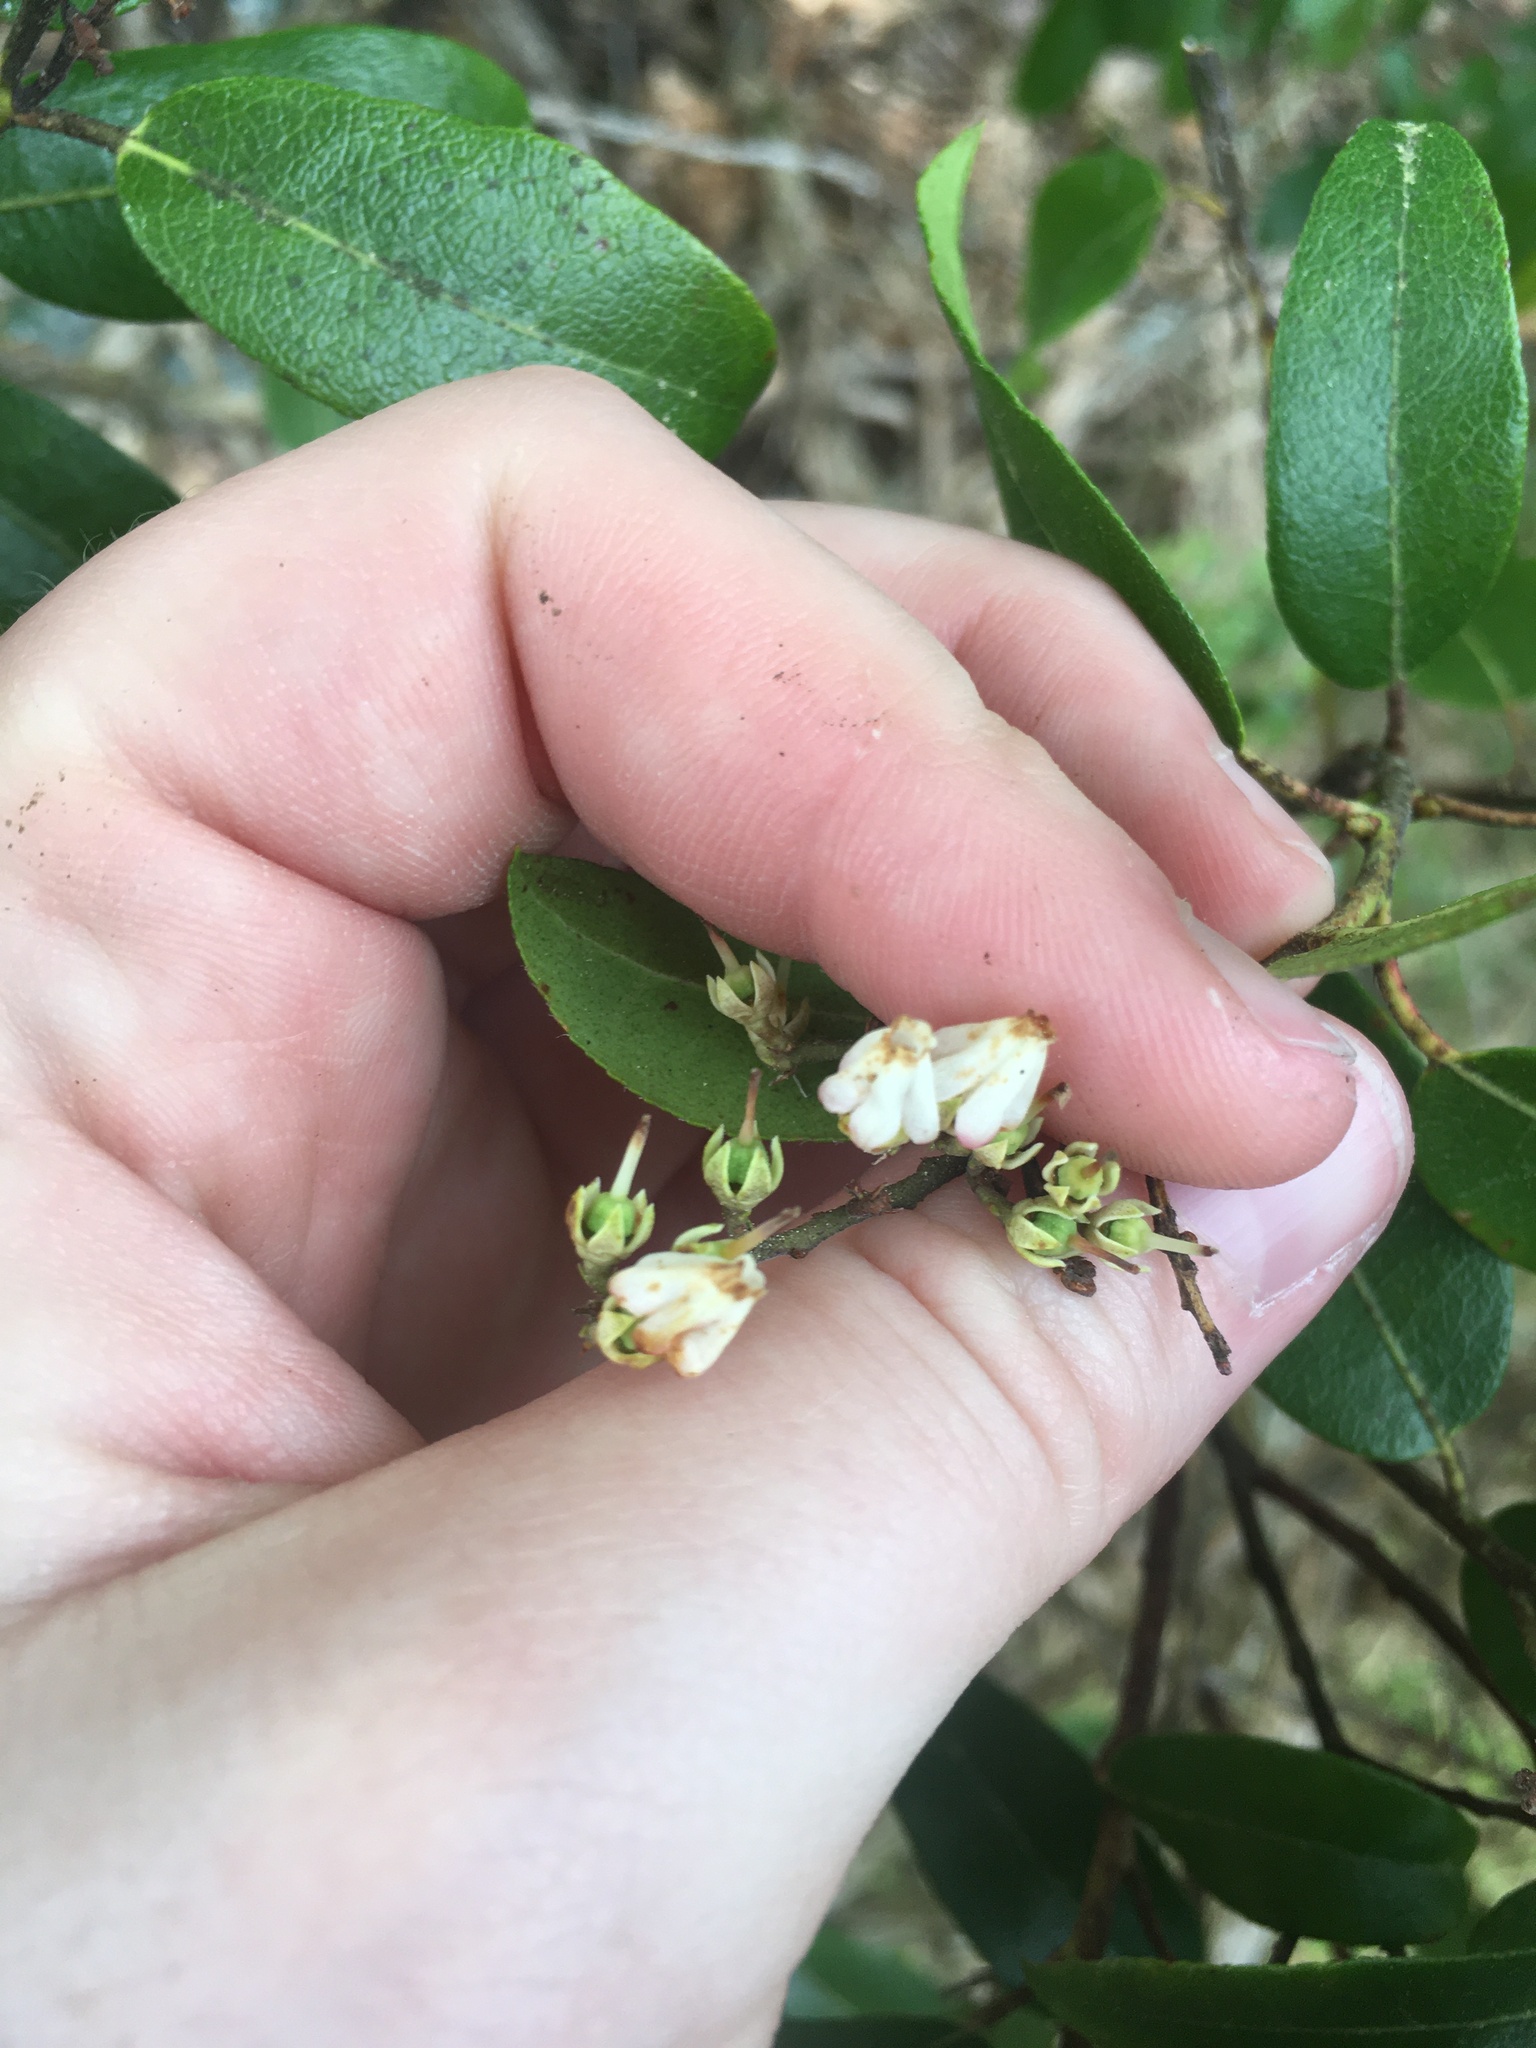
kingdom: Plantae
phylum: Tracheophyta
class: Magnoliopsida
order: Ericales
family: Ericaceae
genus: Pieris
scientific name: Pieris floribunda
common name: Flutterbush
